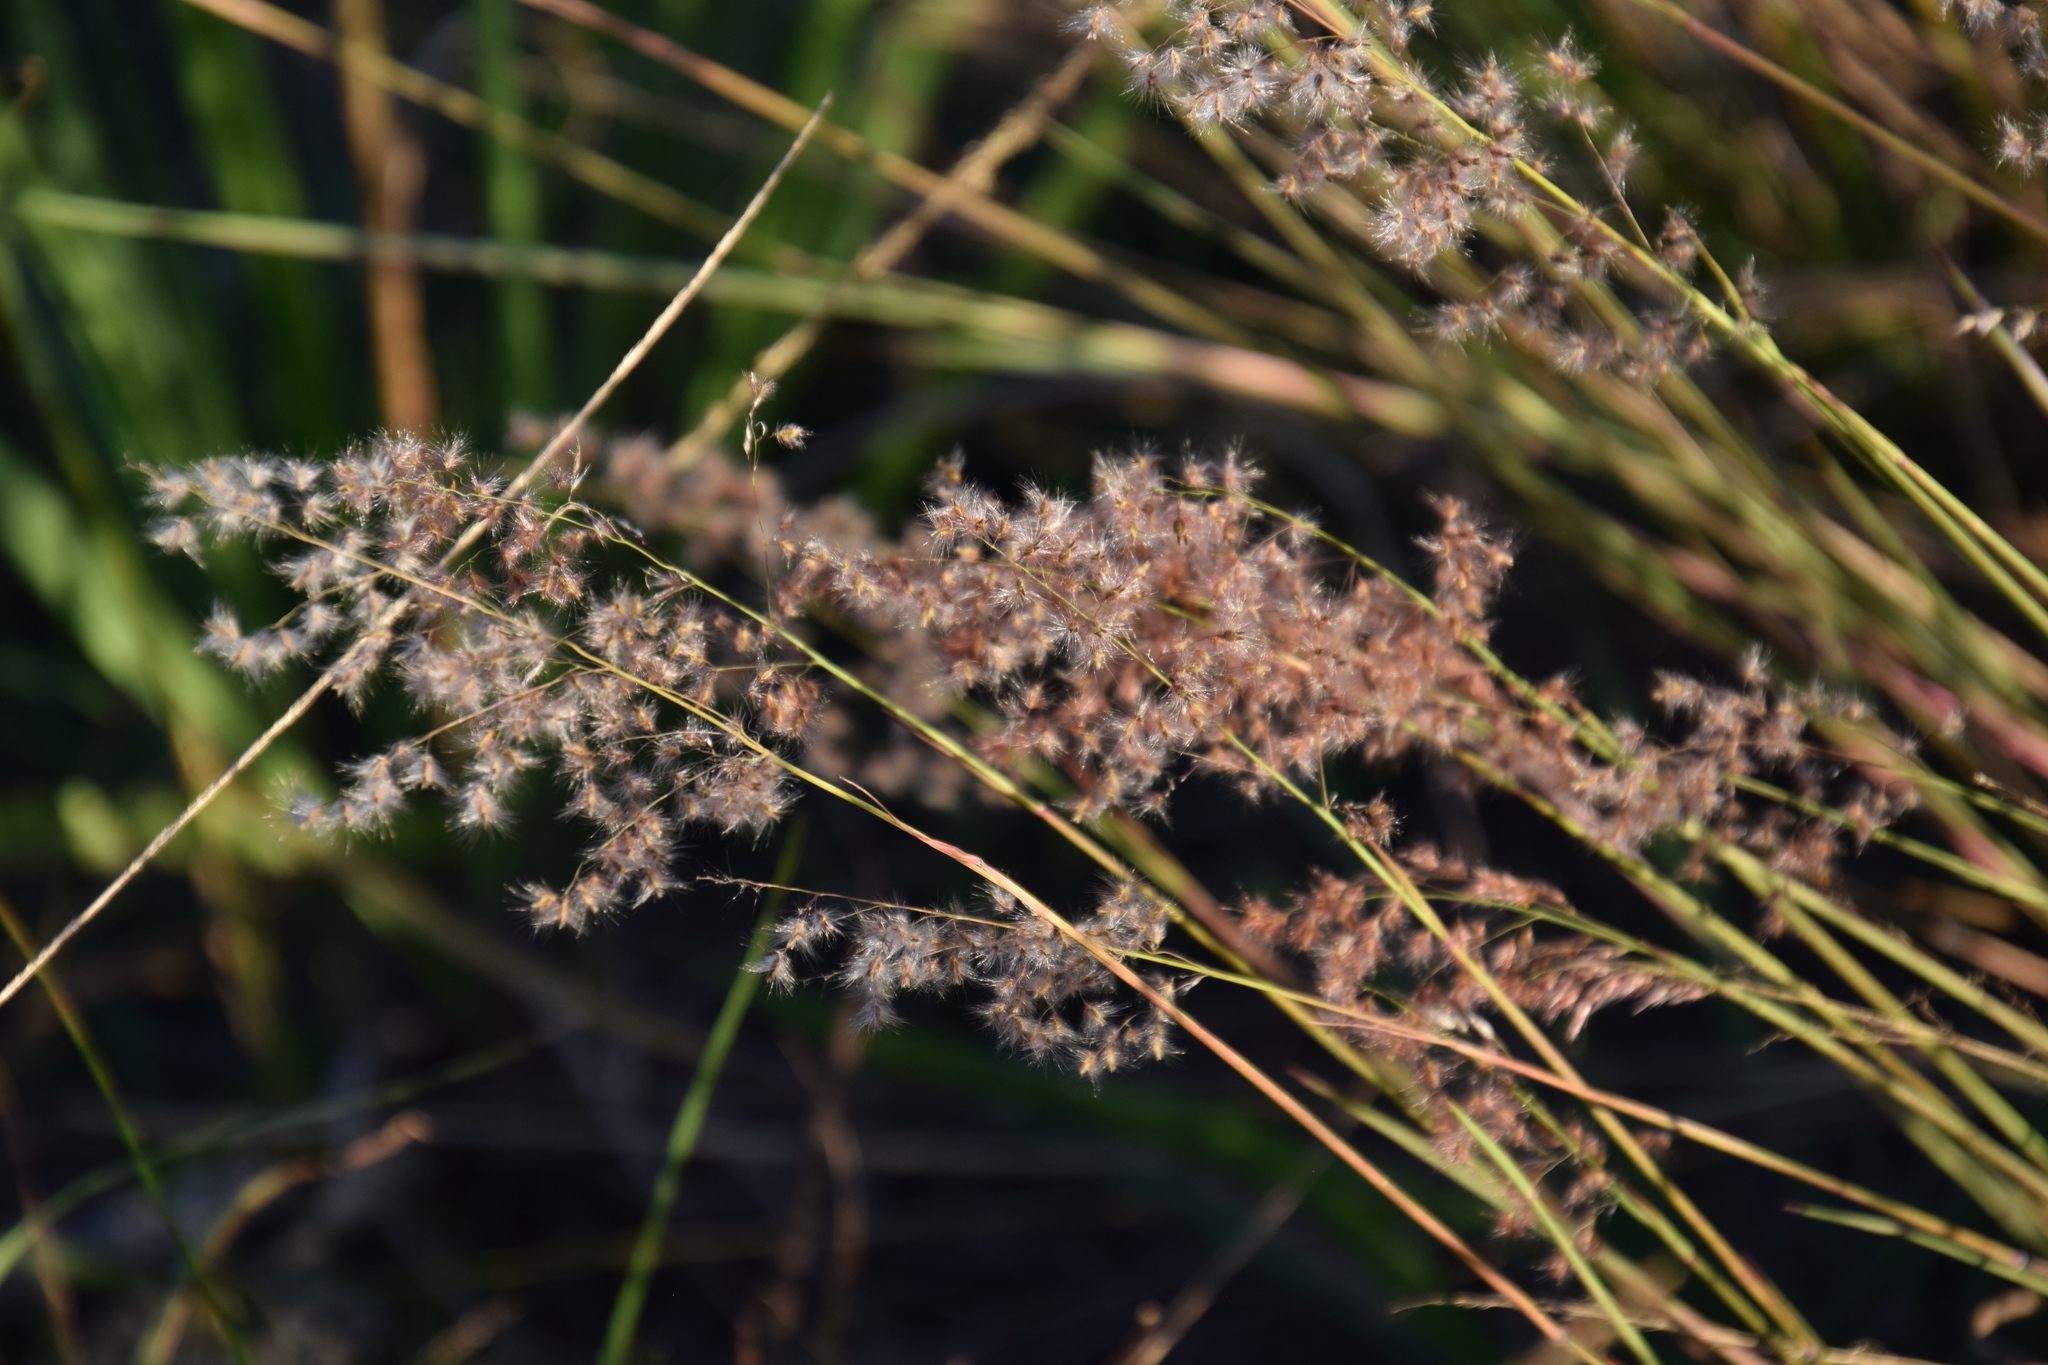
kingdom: Plantae
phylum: Tracheophyta
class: Liliopsida
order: Poales
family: Poaceae
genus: Melinis
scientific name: Melinis repens
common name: Rose natal grass
